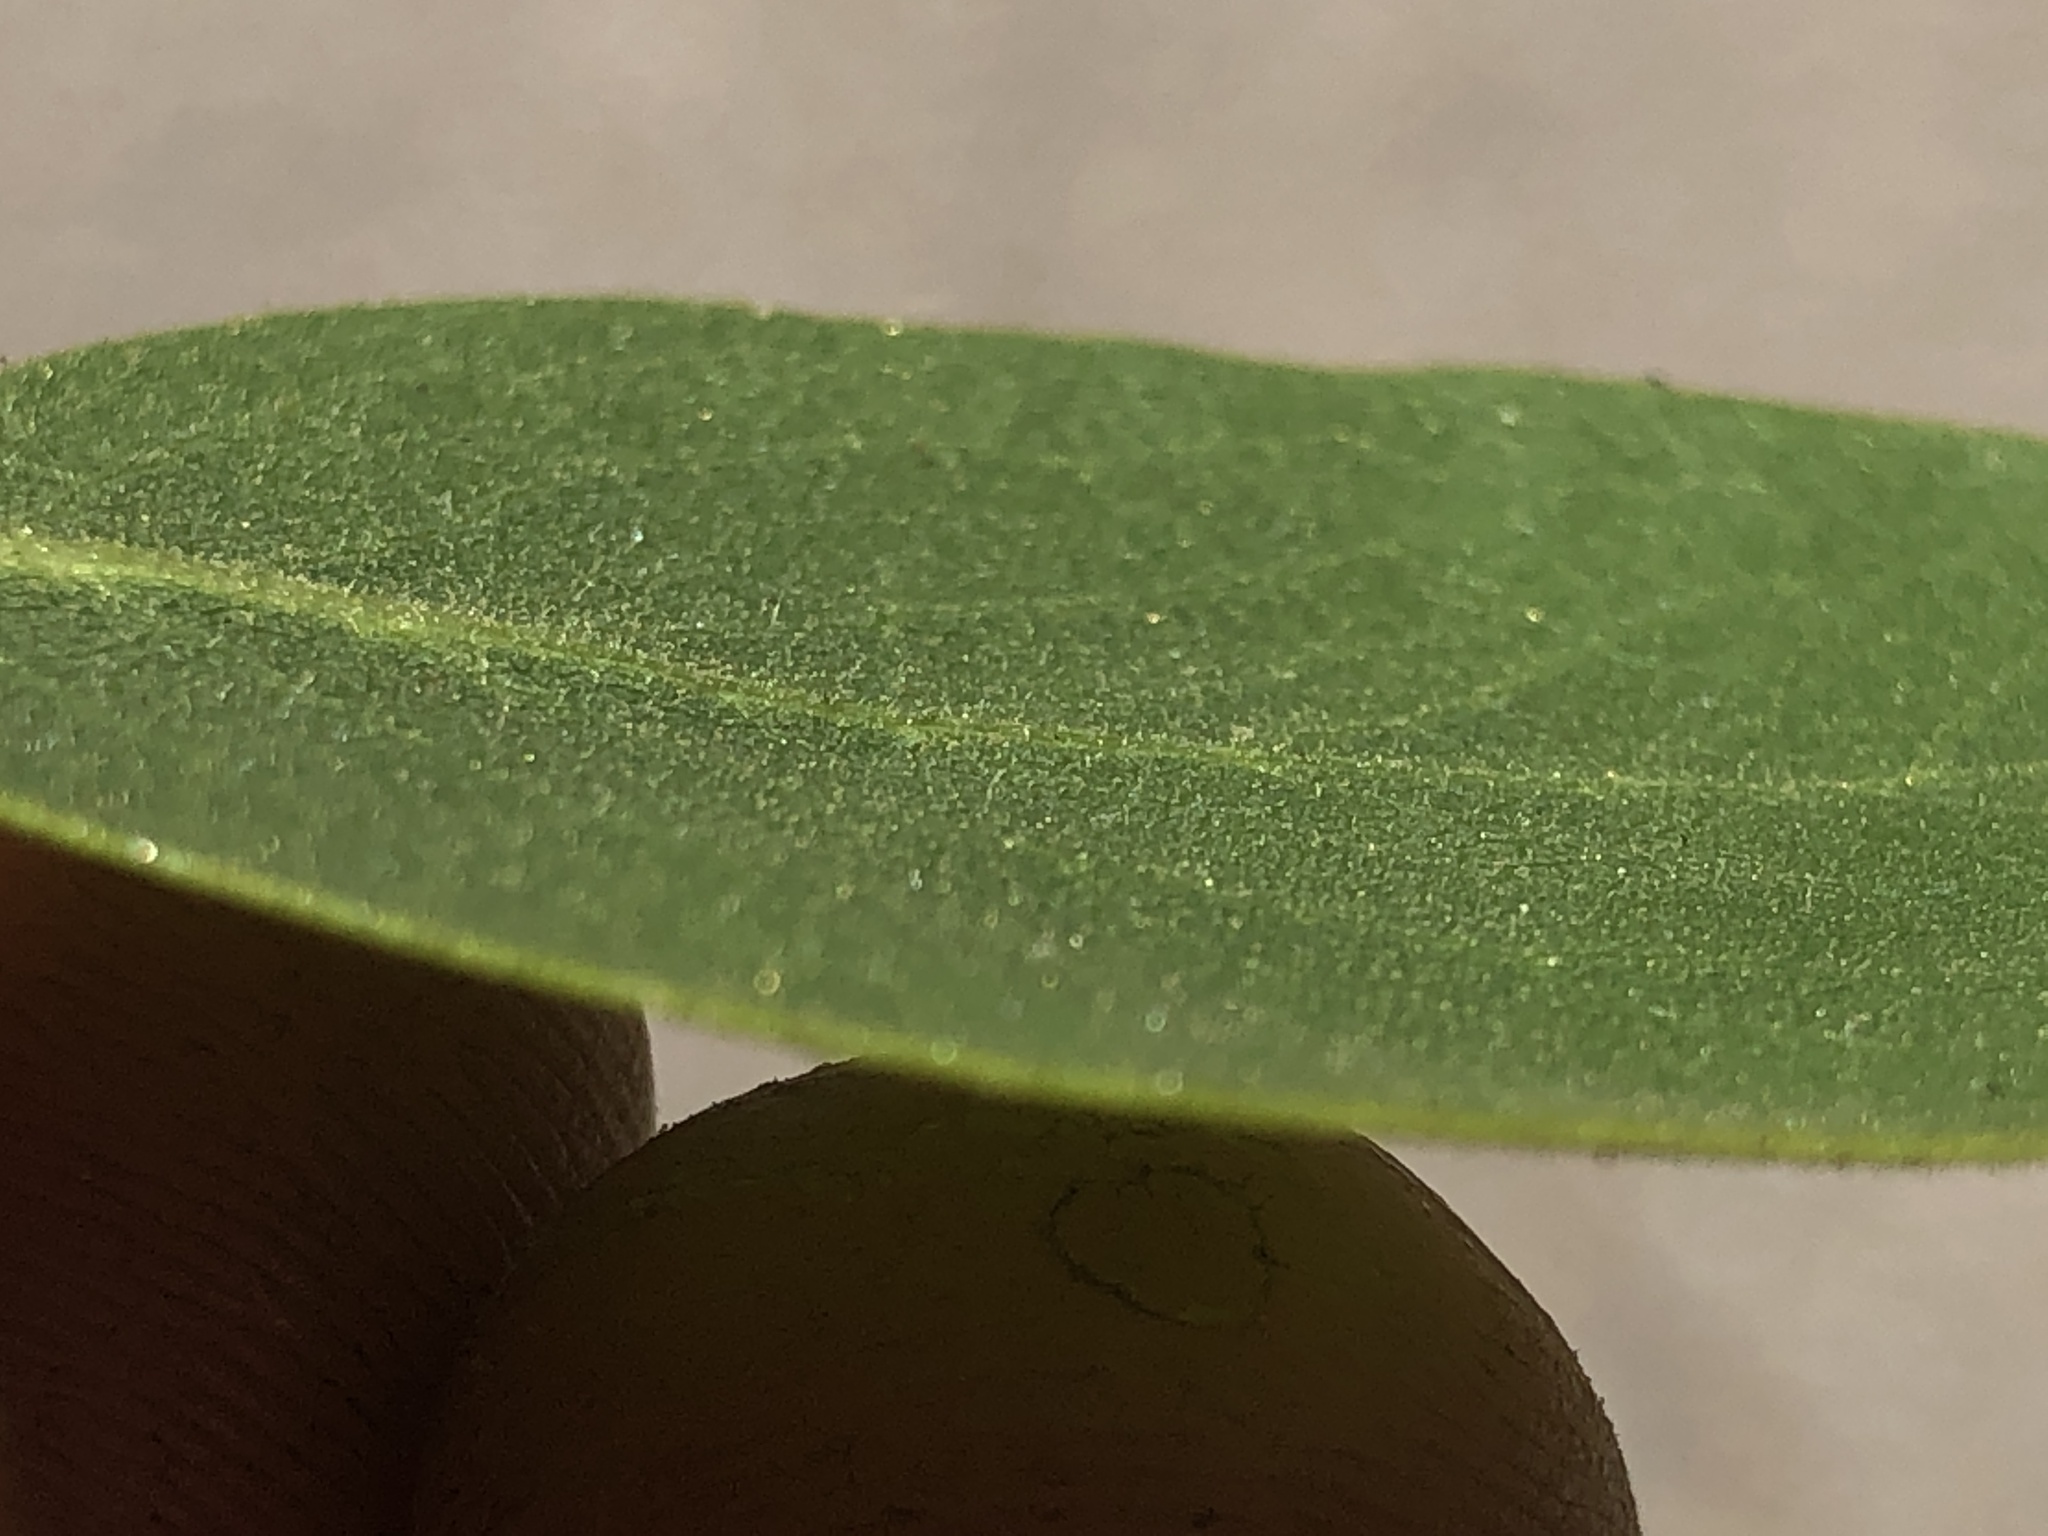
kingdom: Plantae
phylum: Tracheophyta
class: Magnoliopsida
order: Ericales
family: Ericaceae
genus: Arctostaphylos
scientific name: Arctostaphylos patula
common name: Green-leaf manzanita
